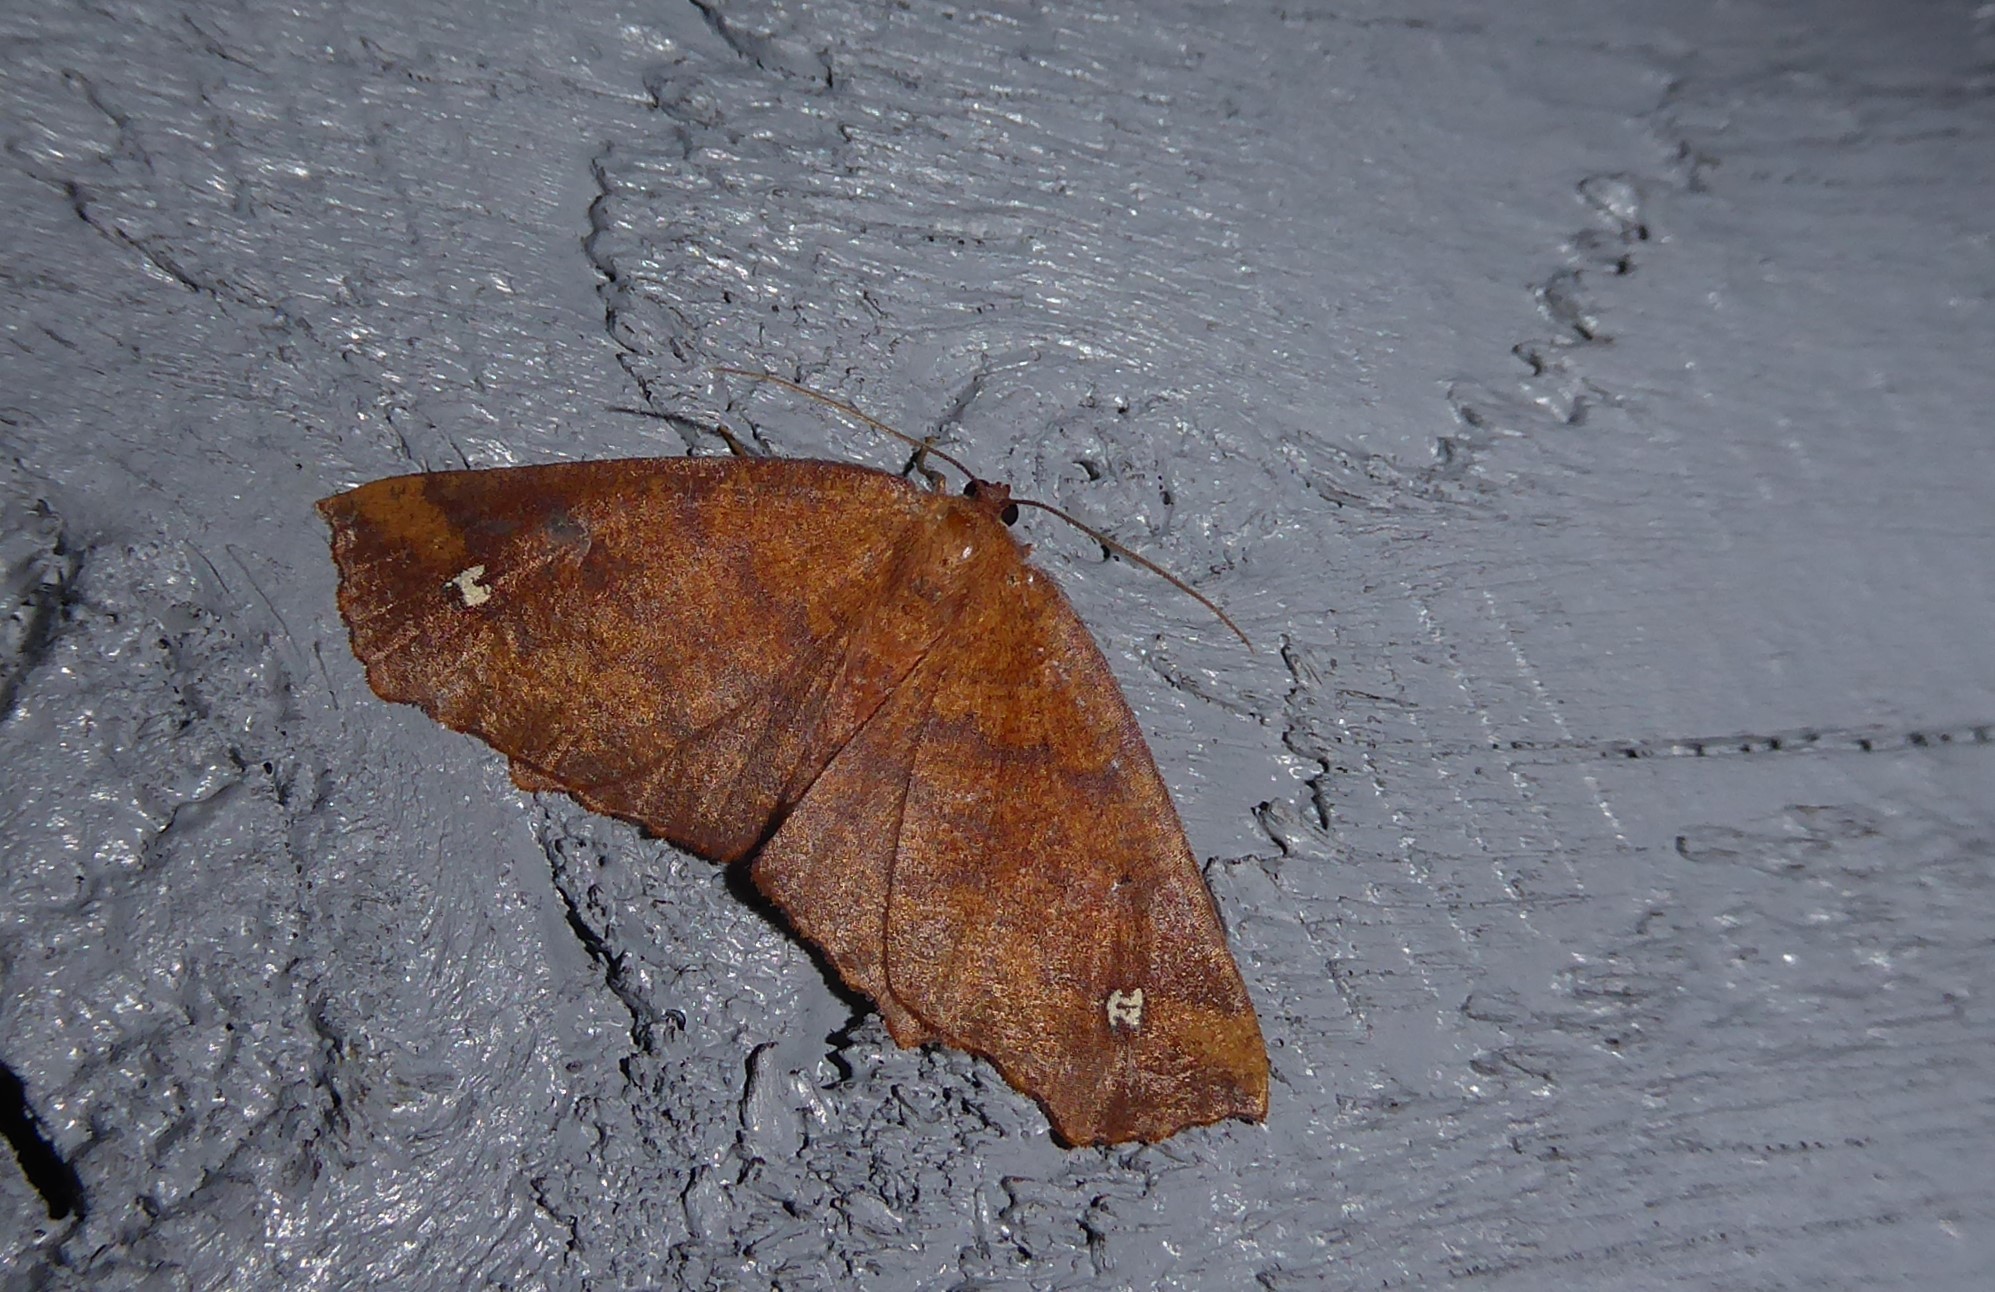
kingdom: Animalia
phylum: Arthropoda
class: Insecta
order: Lepidoptera
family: Geometridae
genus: Xyridacma
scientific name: Xyridacma ustaria
